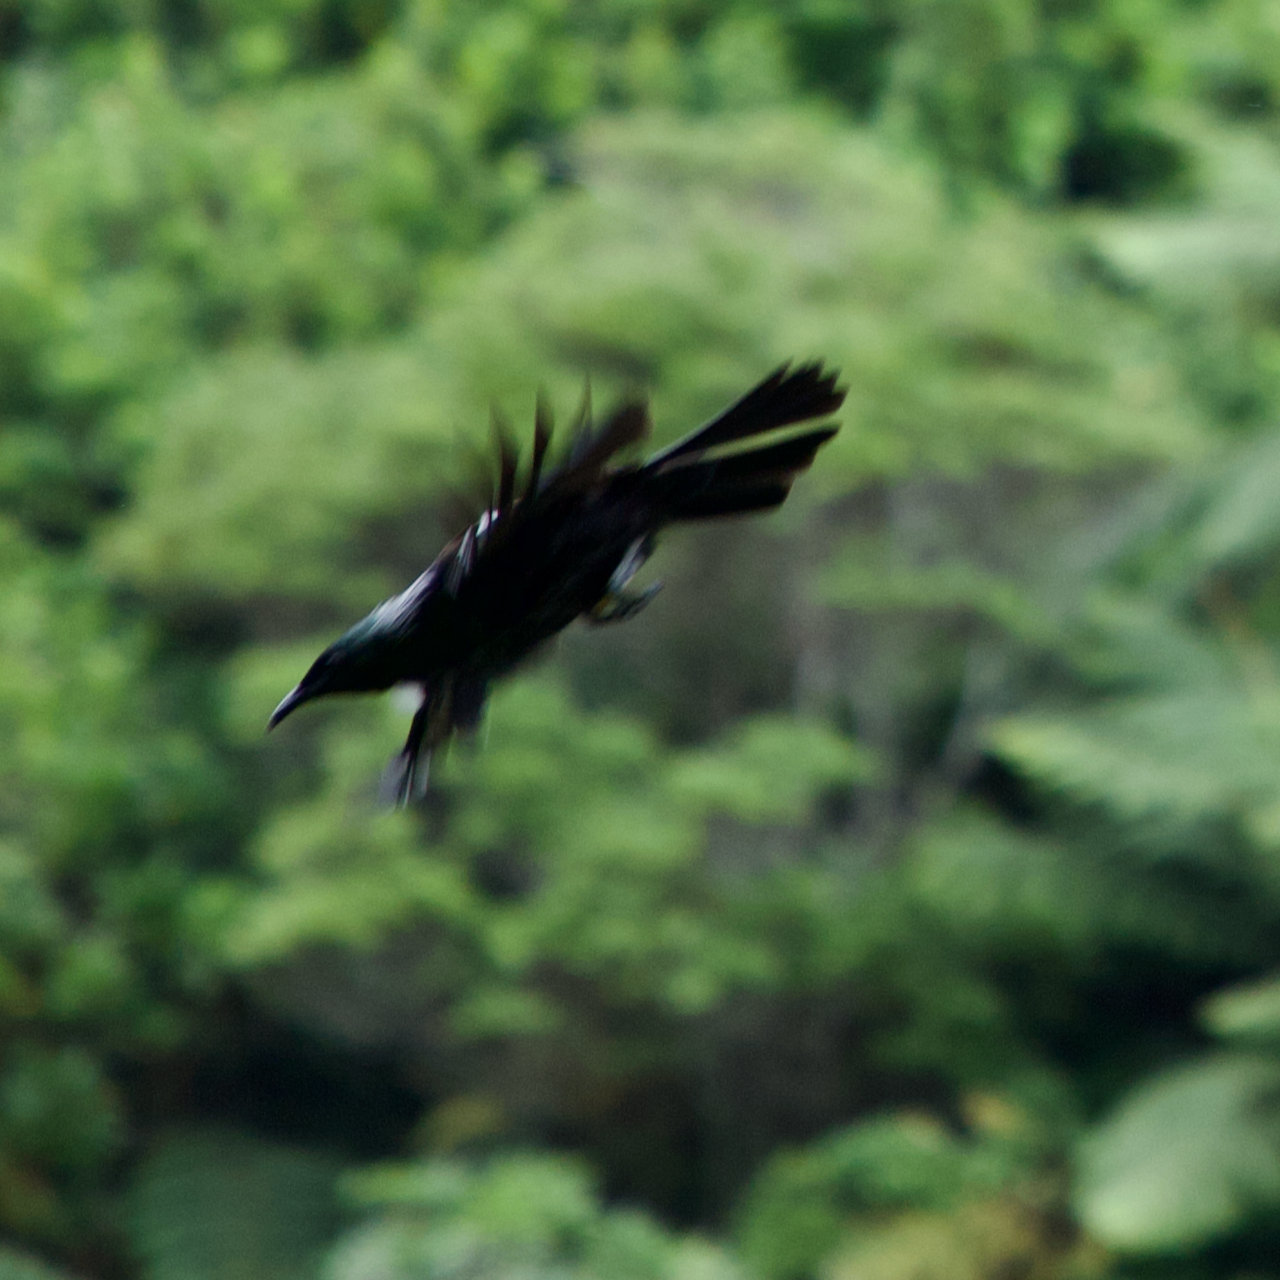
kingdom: Animalia
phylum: Chordata
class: Aves
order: Passeriformes
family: Meliphagidae
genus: Prosthemadera
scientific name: Prosthemadera novaeseelandiae
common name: Tui
